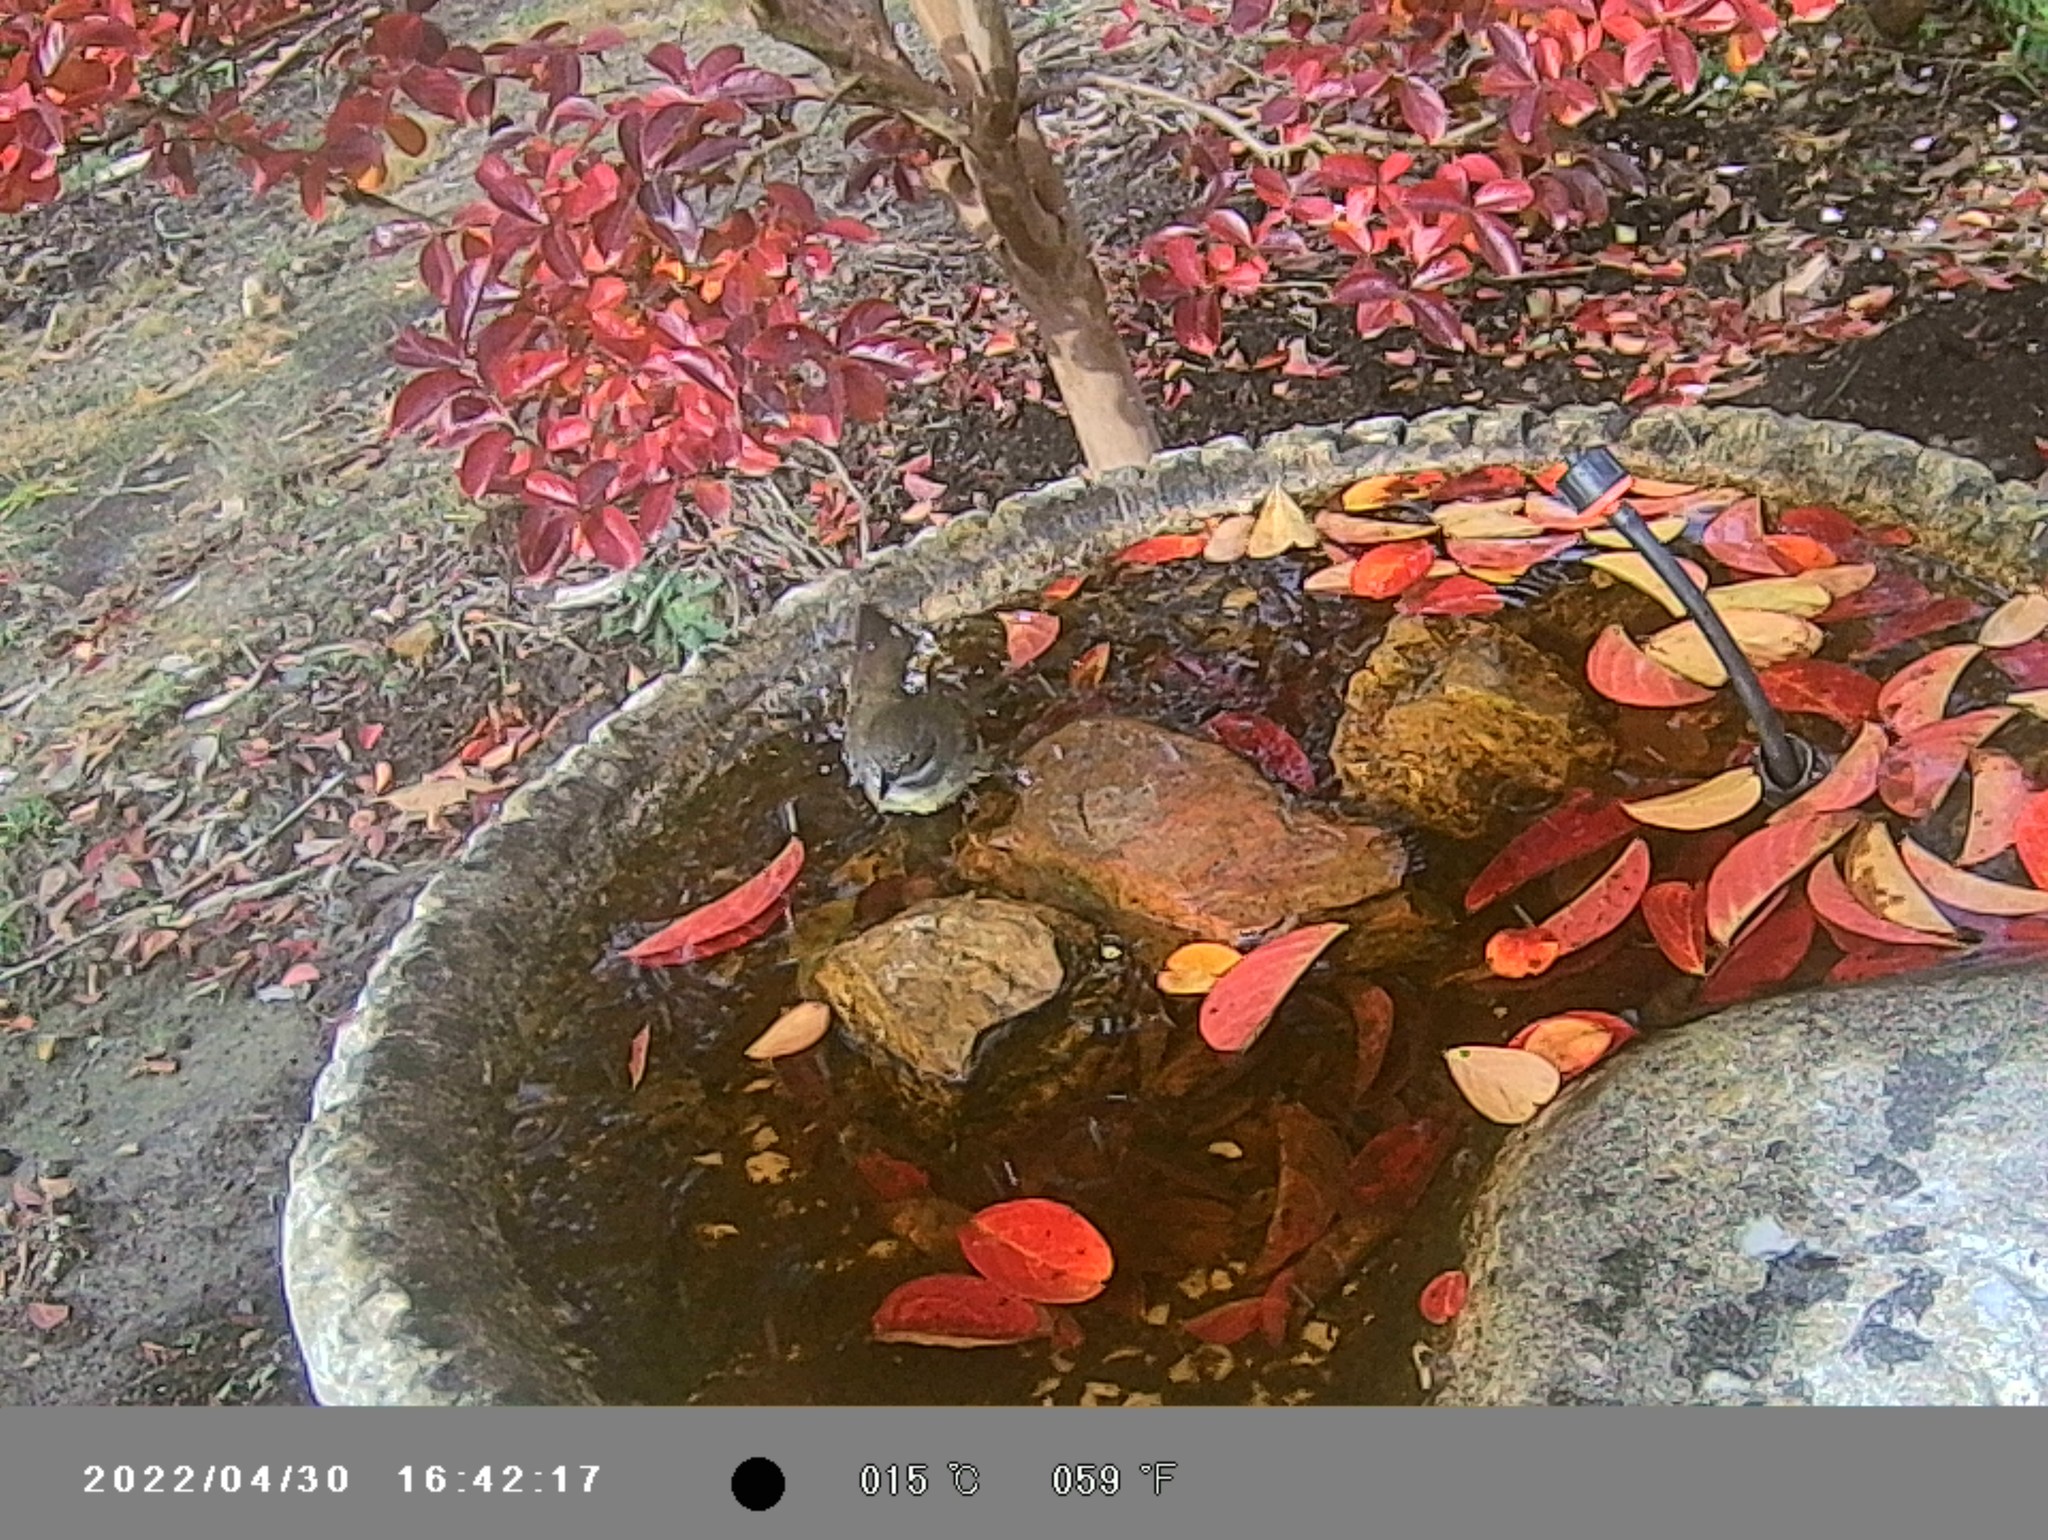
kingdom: Animalia
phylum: Chordata
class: Aves
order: Passeriformes
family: Acanthizidae
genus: Sericornis
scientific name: Sericornis frontalis
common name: White-browed scrubwren
